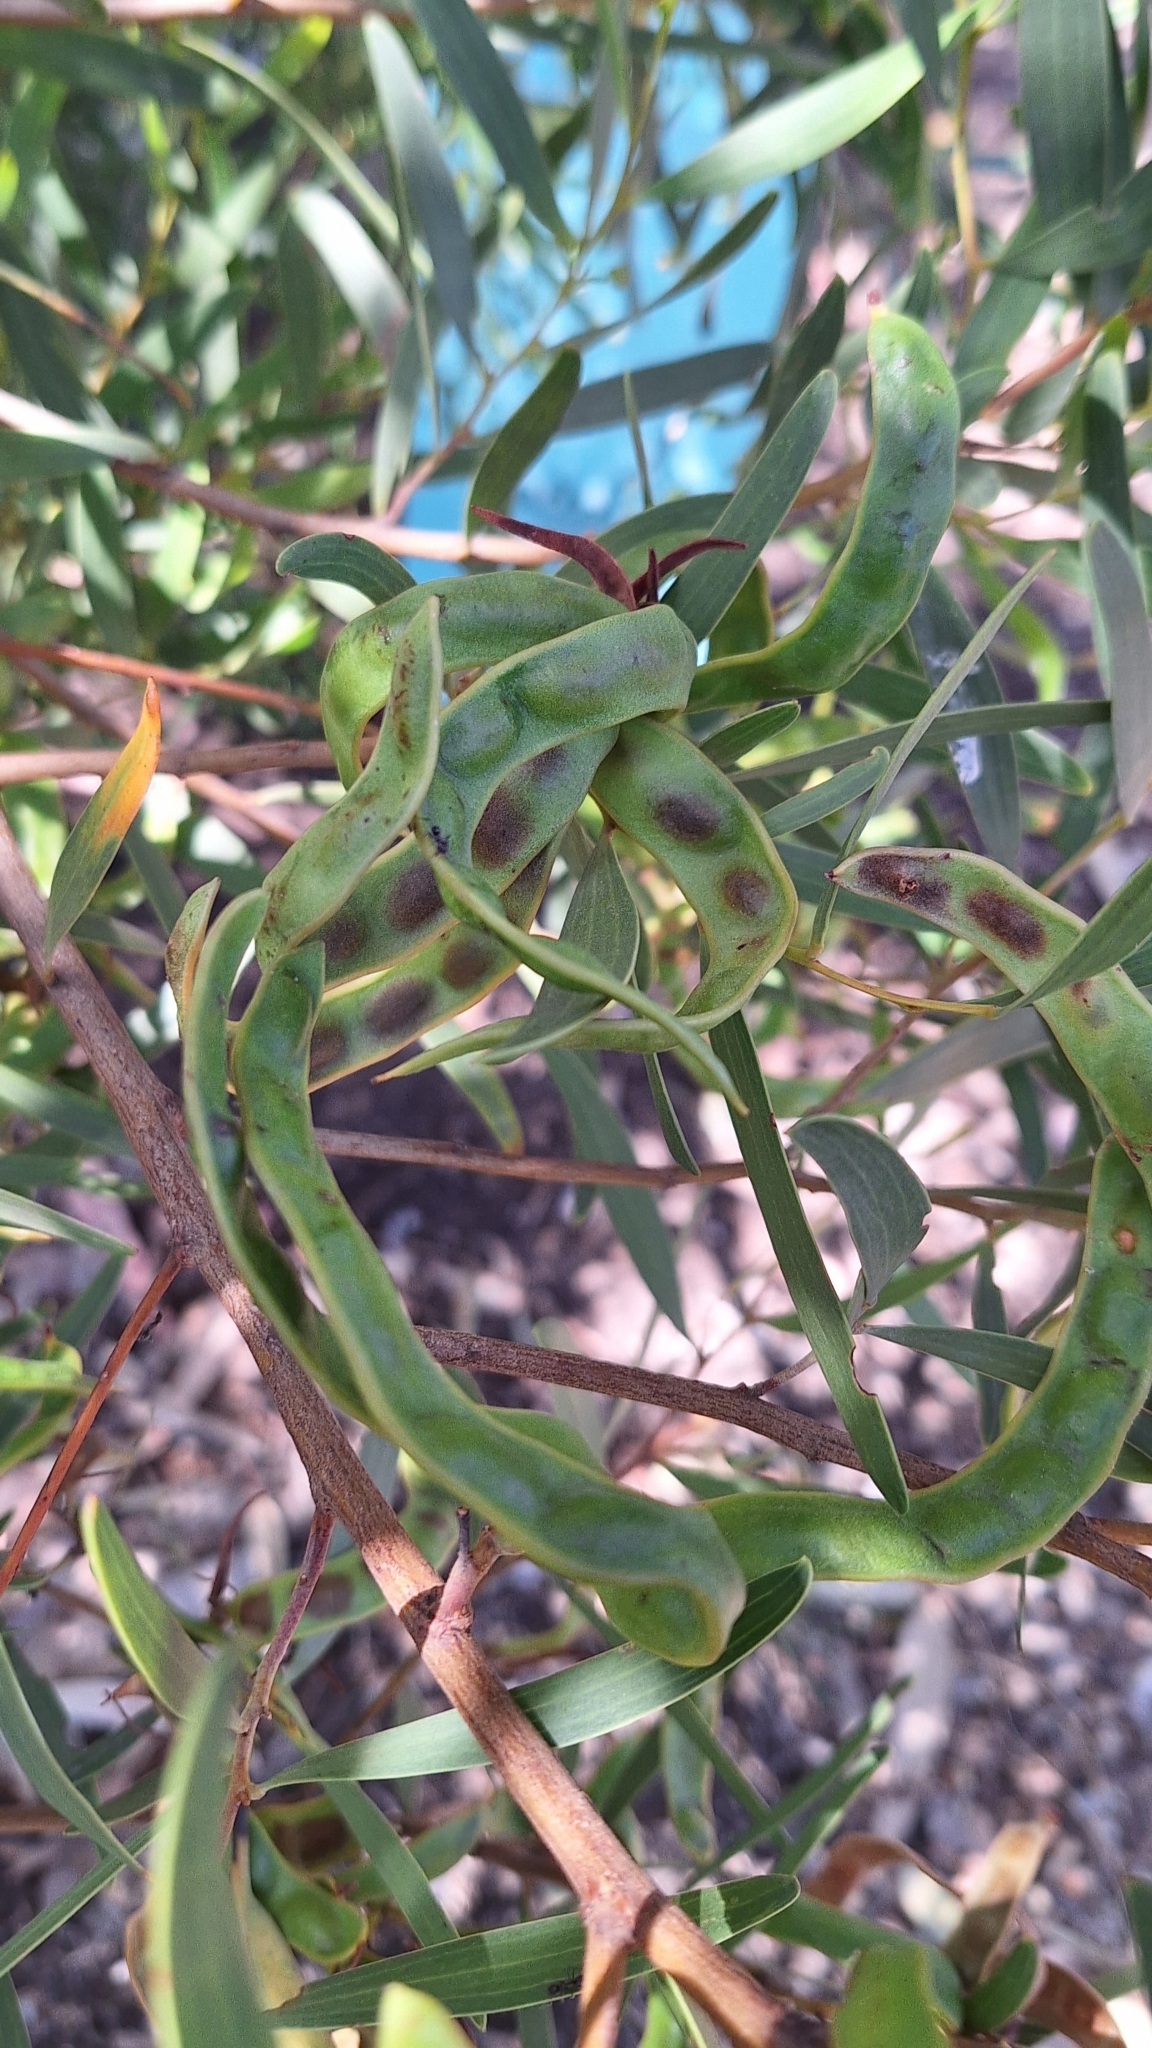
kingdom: Plantae
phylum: Tracheophyta
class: Magnoliopsida
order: Fabales
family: Fabaceae
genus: Acacia
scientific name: Acacia cyclops
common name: Coastal wattle
